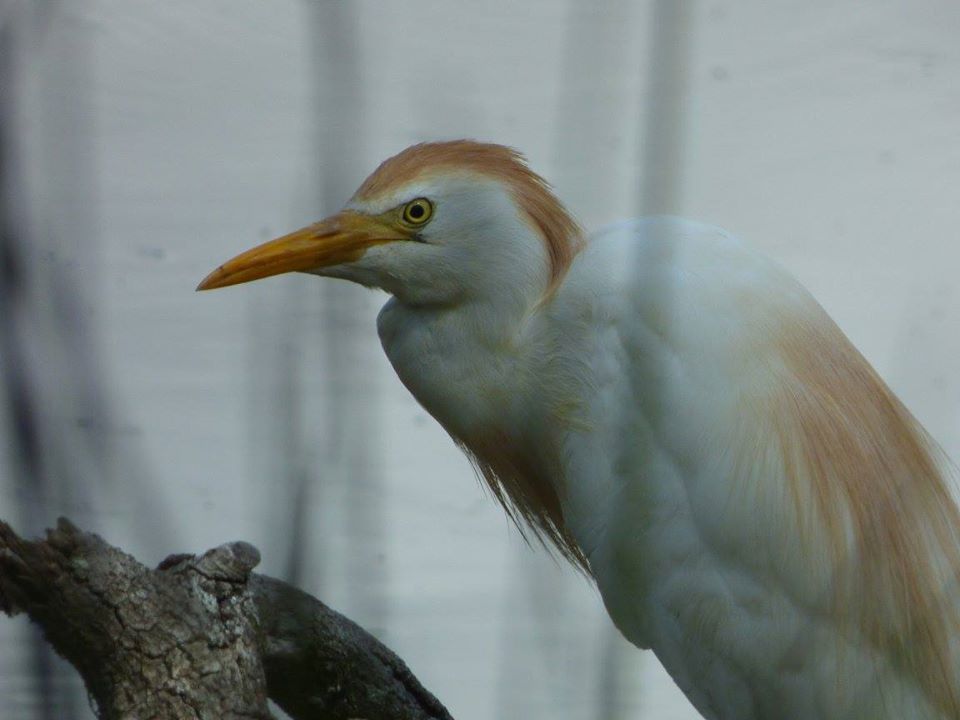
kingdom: Animalia
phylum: Chordata
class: Aves
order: Pelecaniformes
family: Ardeidae
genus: Bubulcus
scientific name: Bubulcus ibis
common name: Cattle egret
